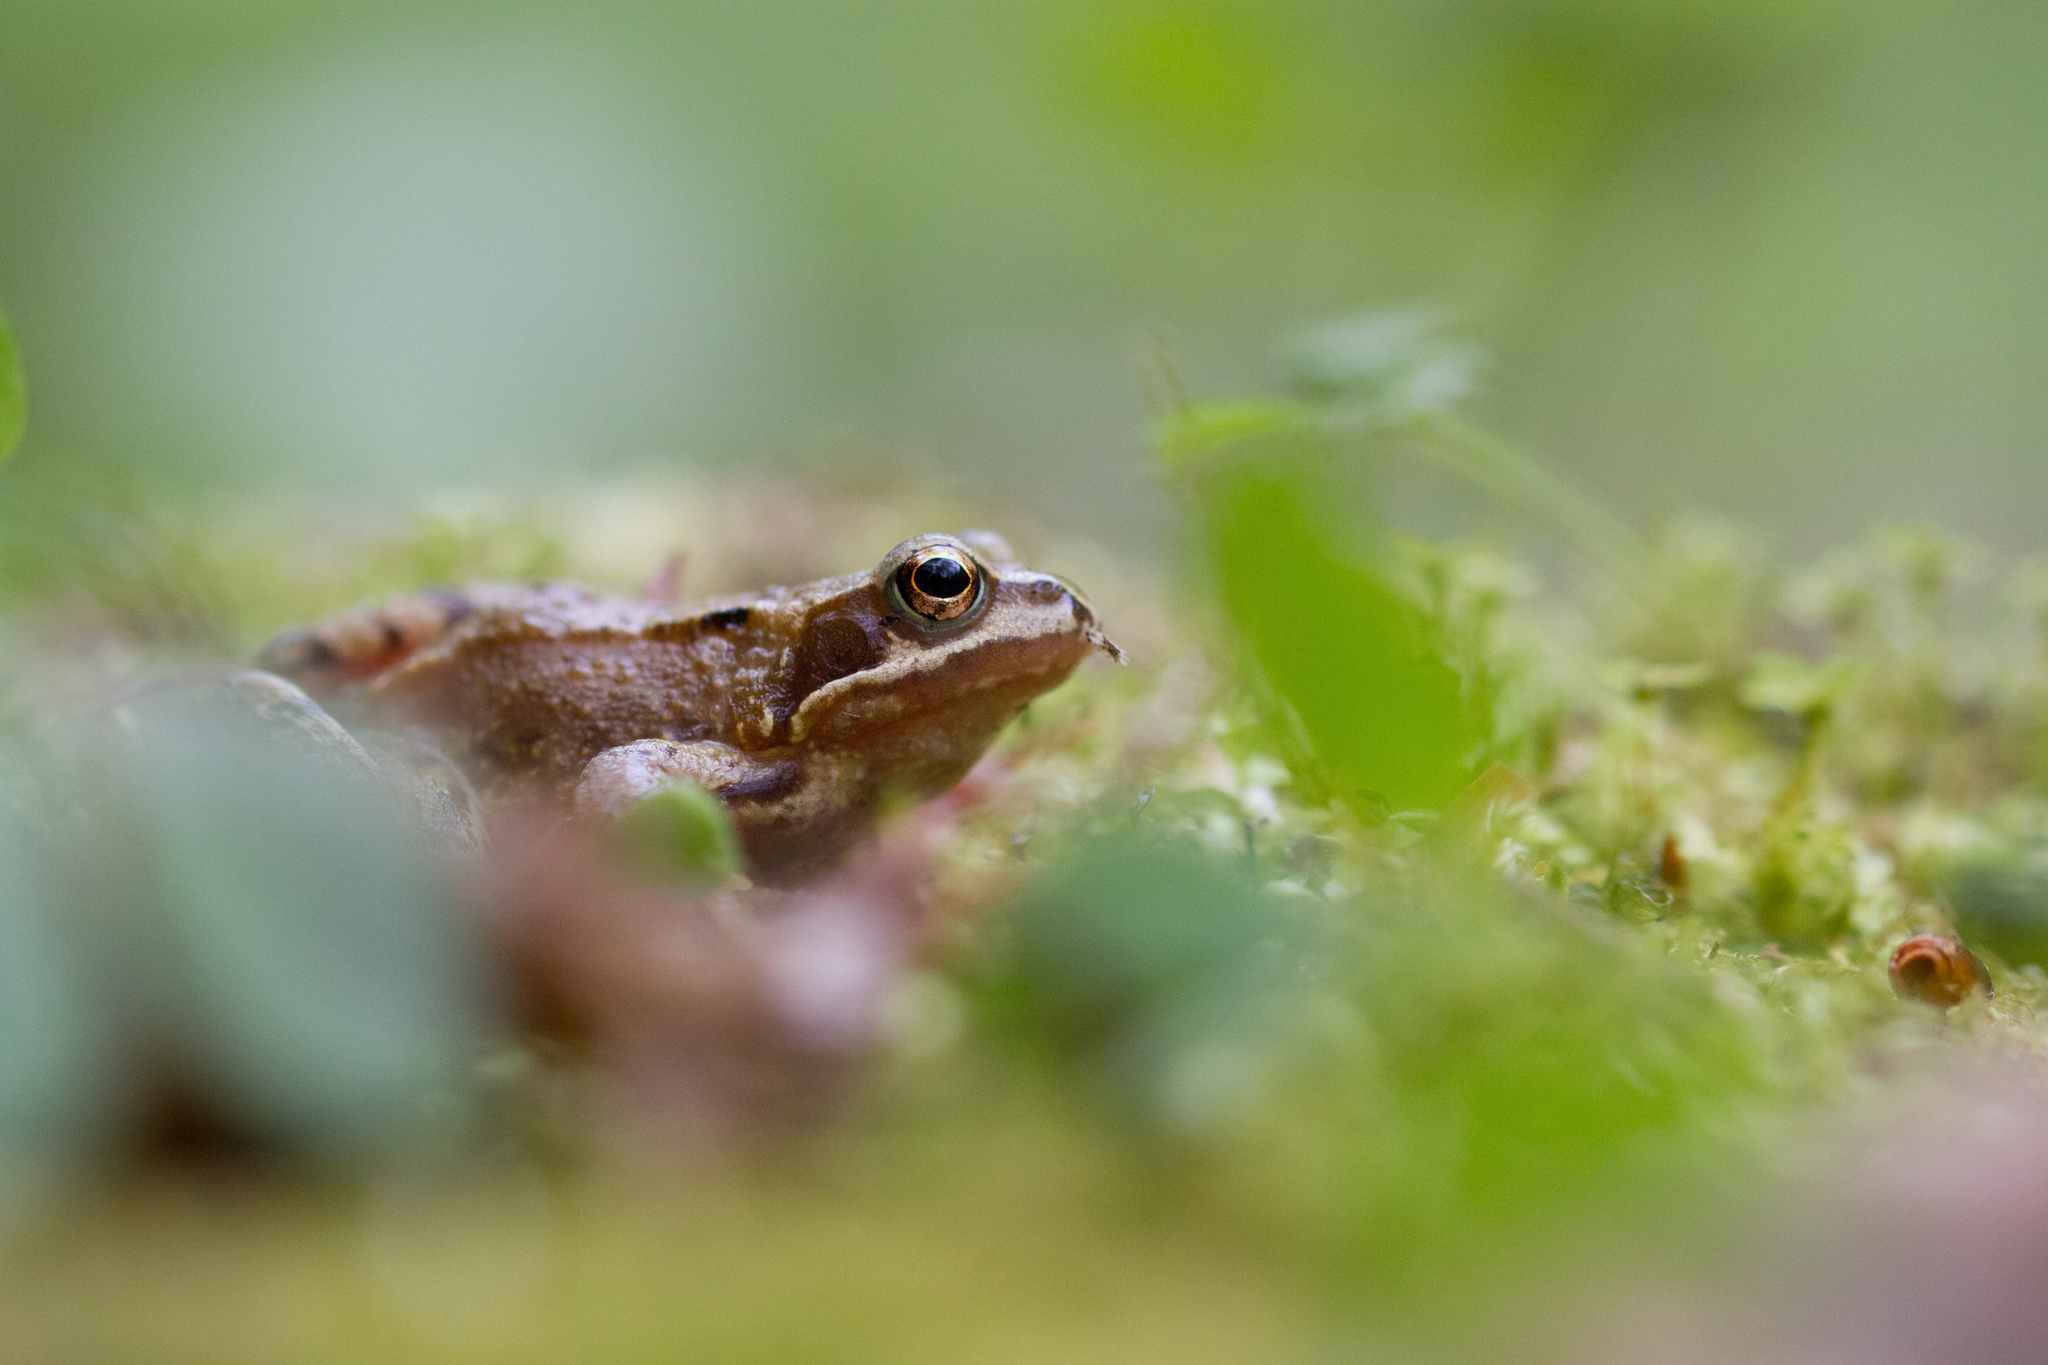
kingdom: Animalia
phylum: Chordata
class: Amphibia
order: Anura
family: Ranidae
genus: Rana
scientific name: Rana temporaria
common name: Common frog
